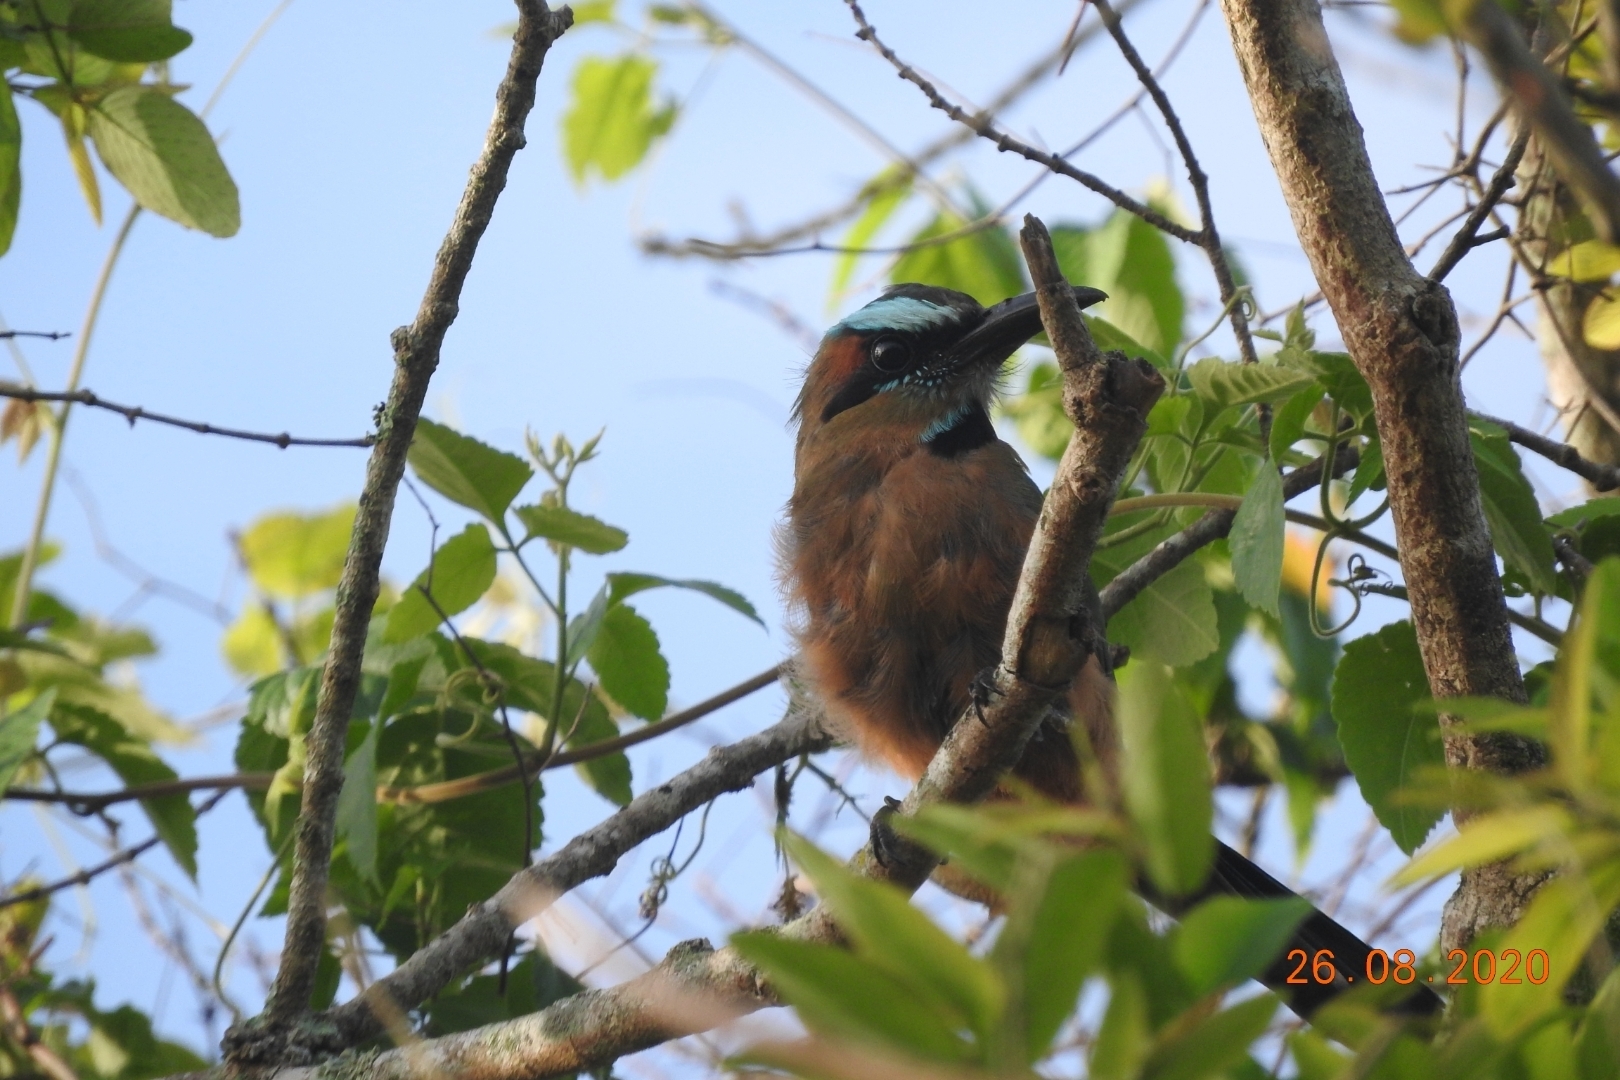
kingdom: Animalia
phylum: Chordata
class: Aves
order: Coraciiformes
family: Momotidae
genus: Eumomota
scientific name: Eumomota superciliosa
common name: Turquoise-browed motmot
